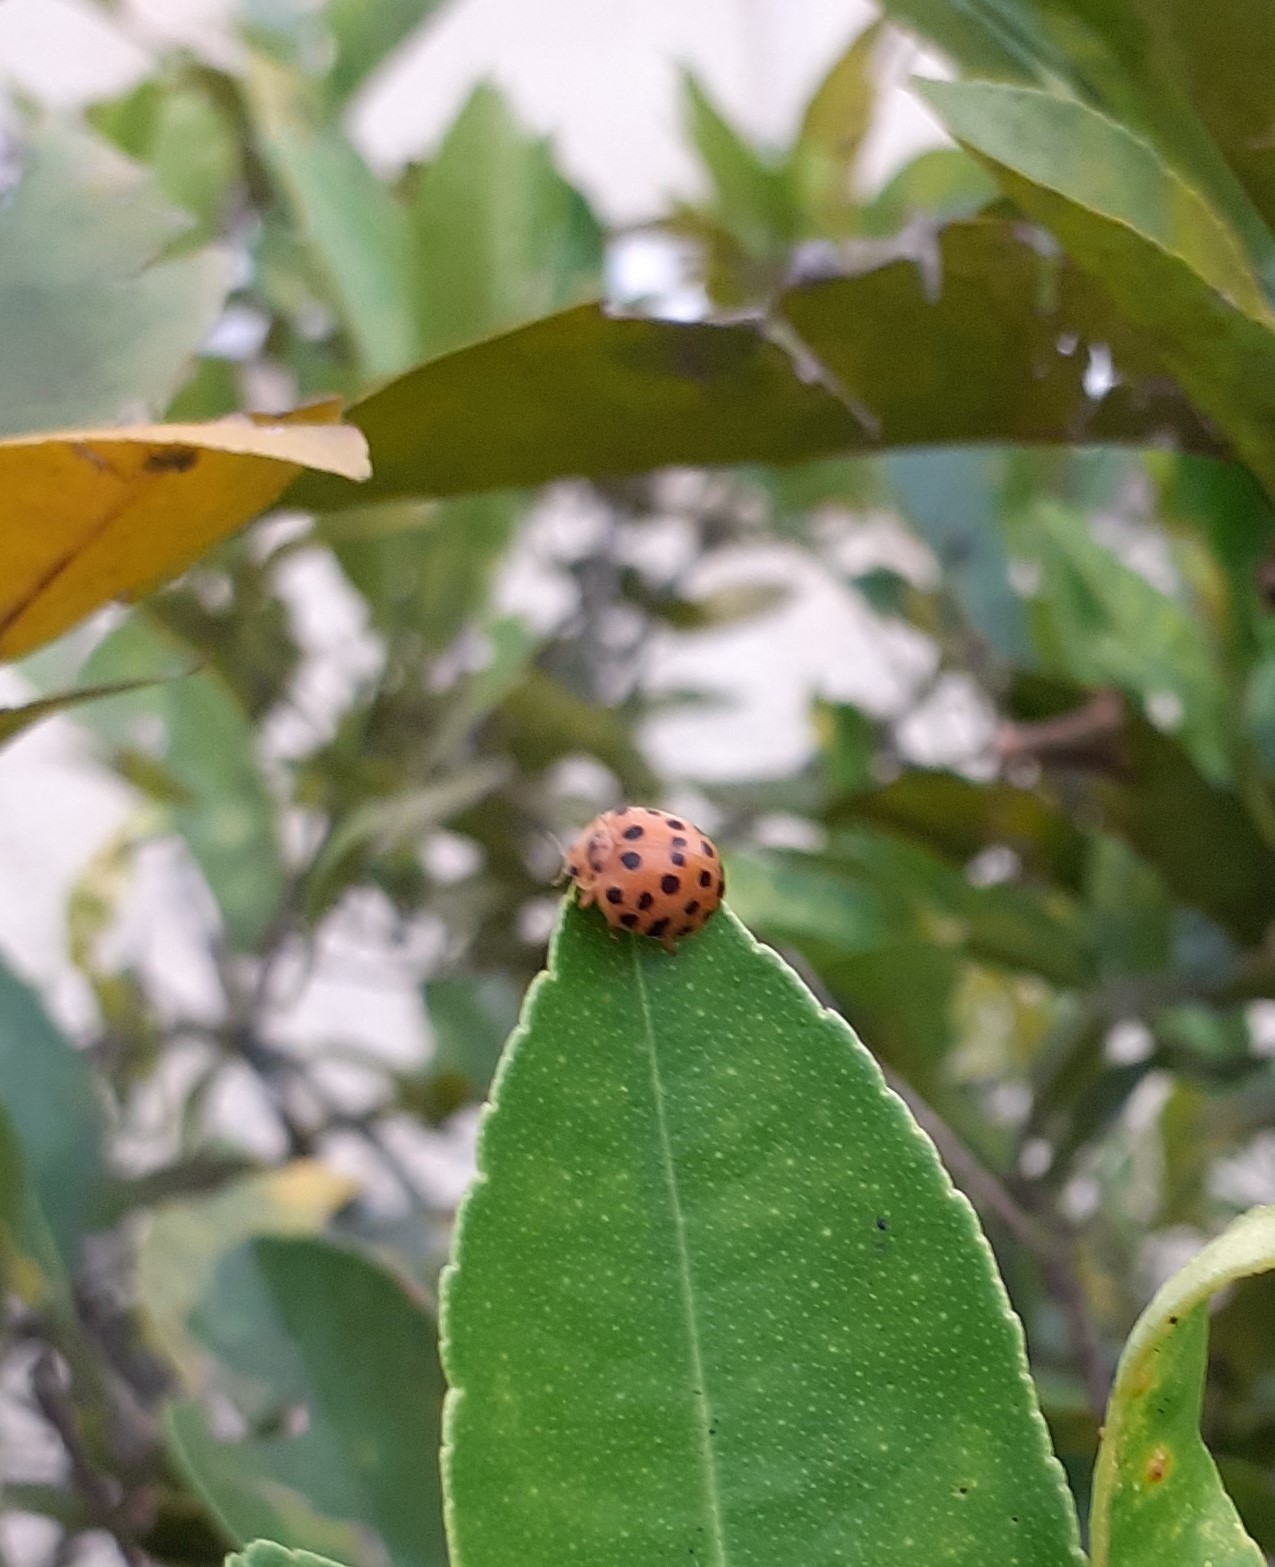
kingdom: Animalia
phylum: Arthropoda
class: Insecta
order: Coleoptera
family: Coccinellidae
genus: Henosepilachna
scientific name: Henosepilachna vigintioctopunctata
